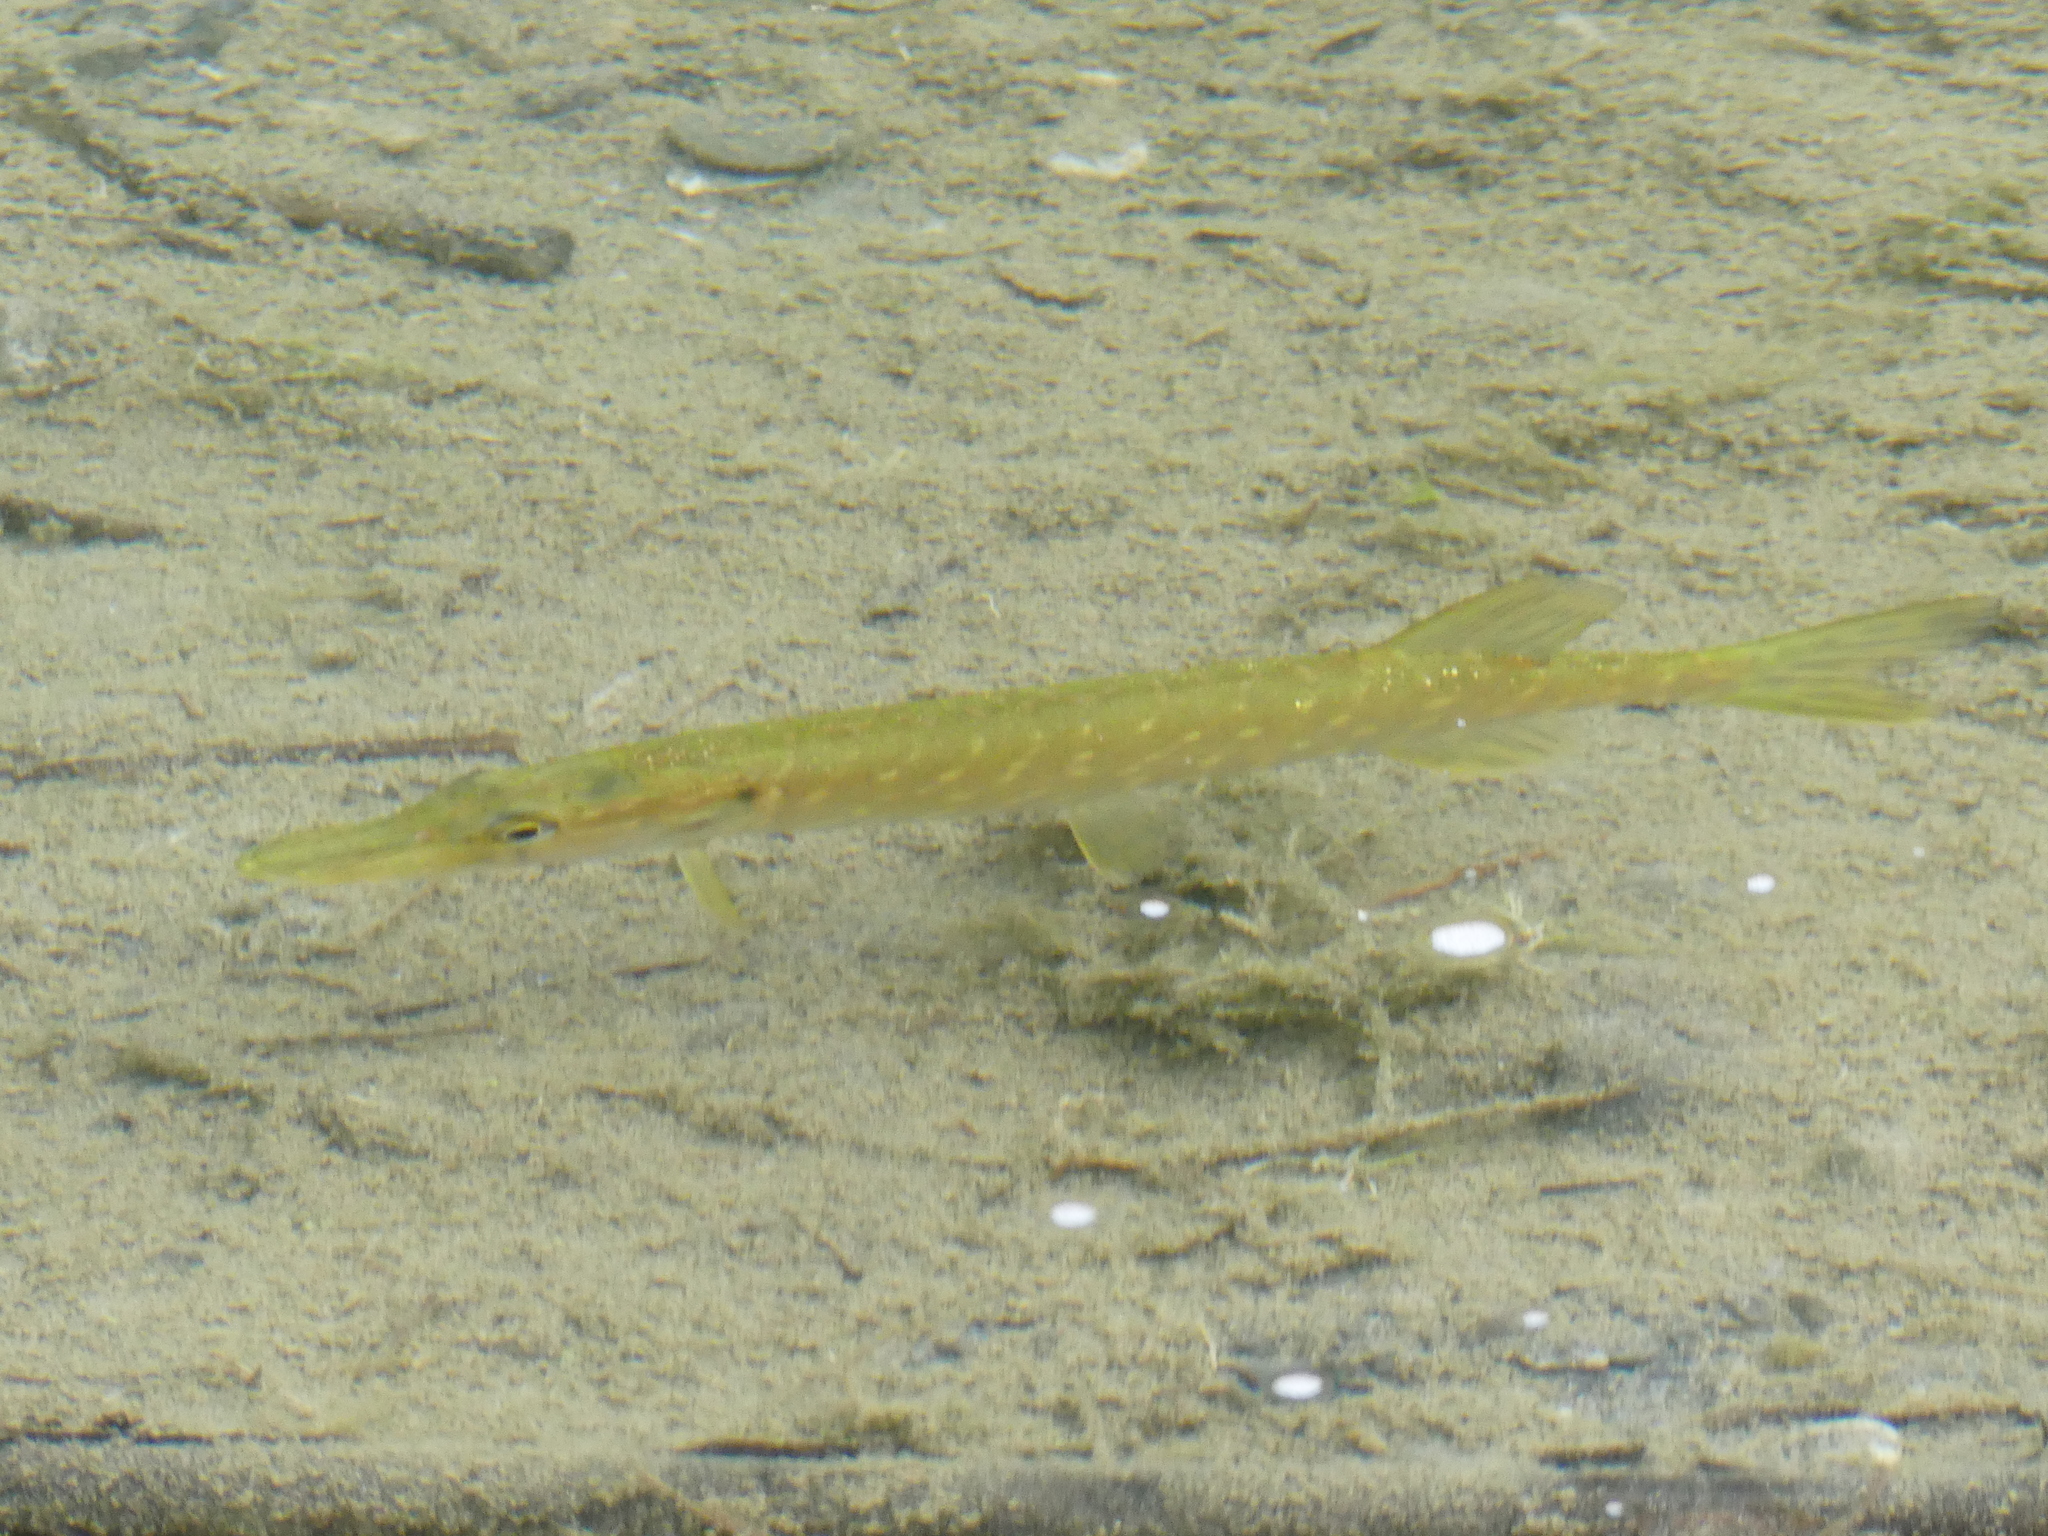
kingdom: Animalia
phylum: Chordata
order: Esociformes
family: Esocidae
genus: Esox
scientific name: Esox lucius
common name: Northern pike
